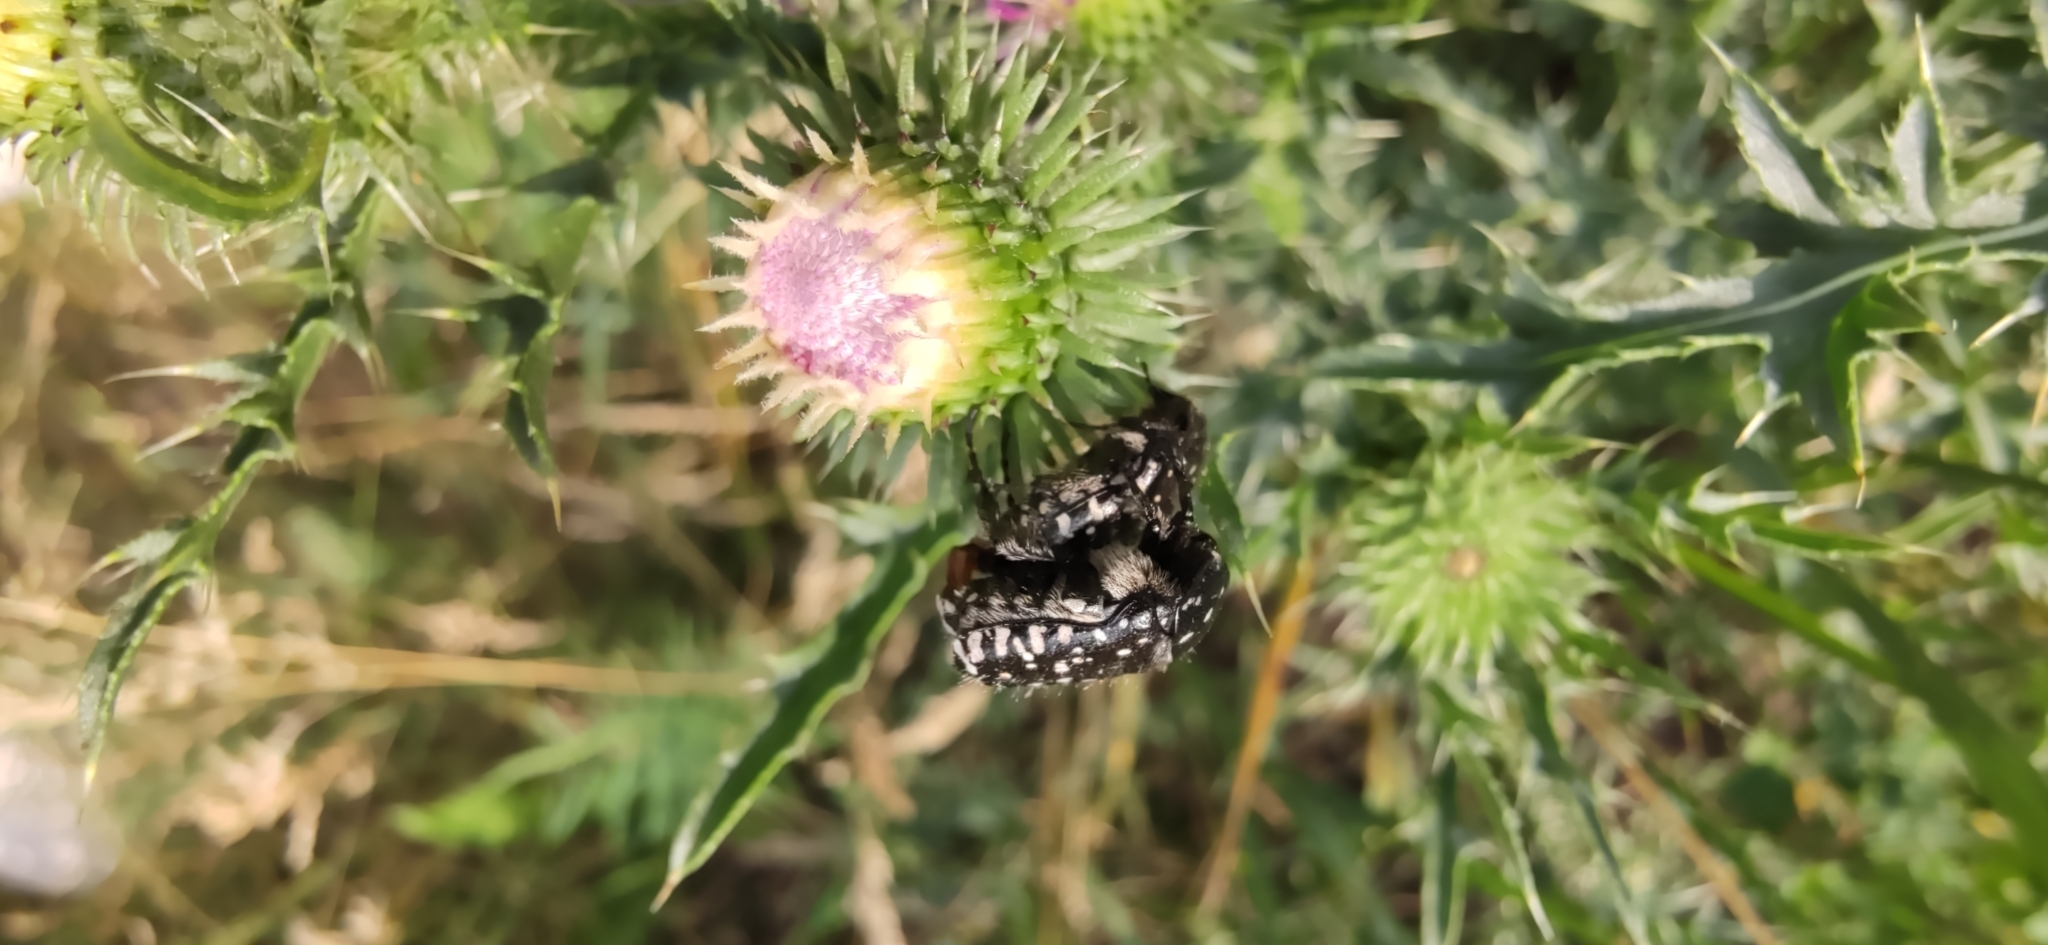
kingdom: Animalia
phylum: Arthropoda
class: Insecta
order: Coleoptera
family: Scarabaeidae
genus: Oxythyrea
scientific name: Oxythyrea funesta
